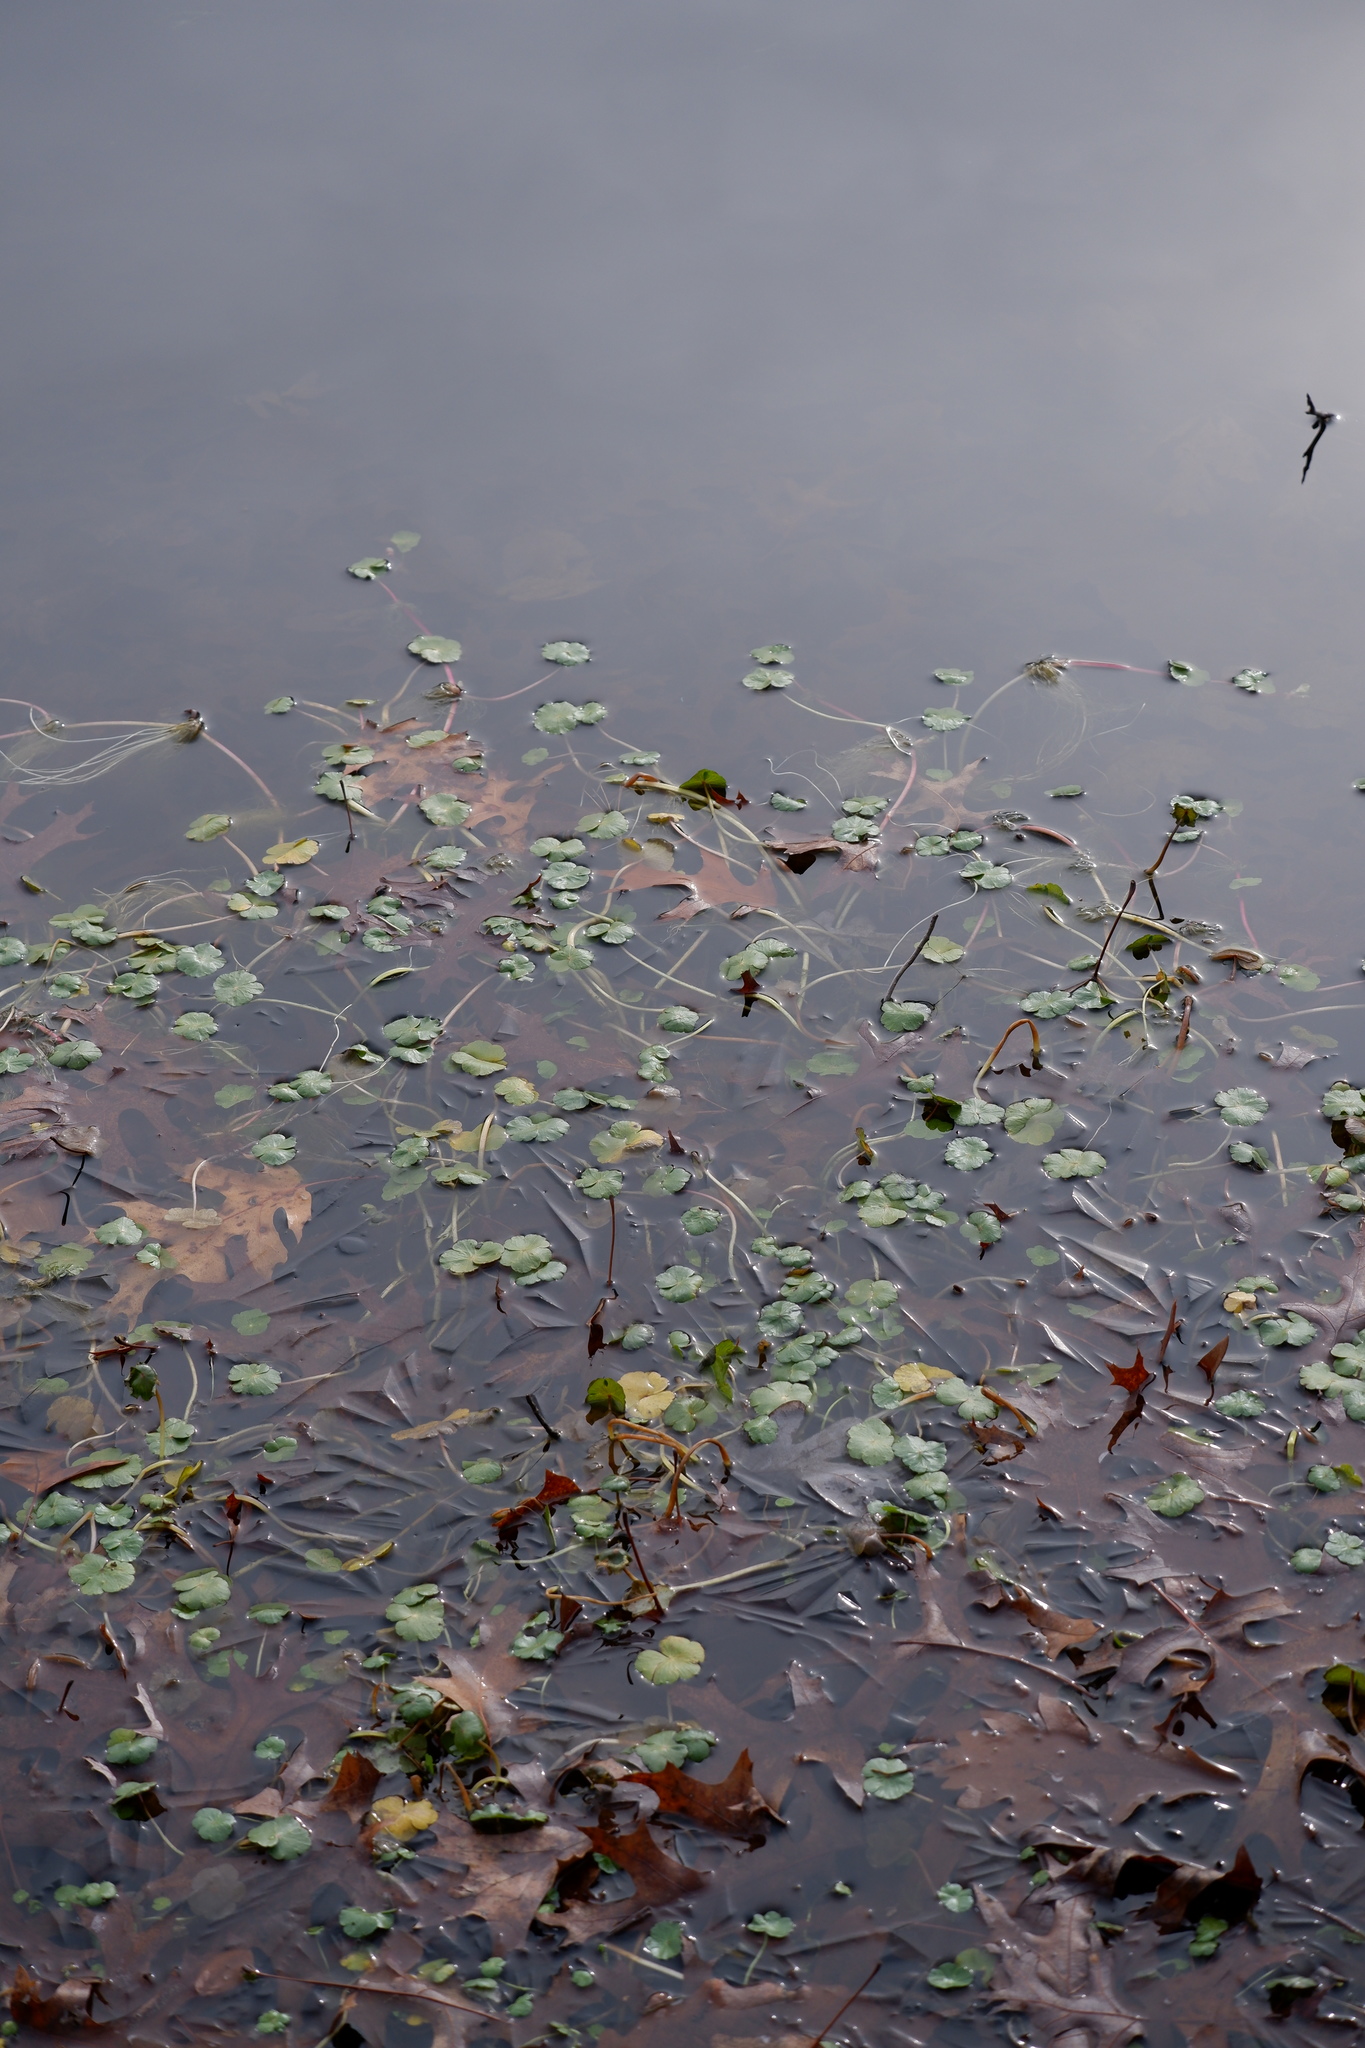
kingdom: Plantae
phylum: Tracheophyta
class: Magnoliopsida
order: Apiales
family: Araliaceae
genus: Hydrocotyle
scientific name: Hydrocotyle ranunculoides
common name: Floating pennywort
